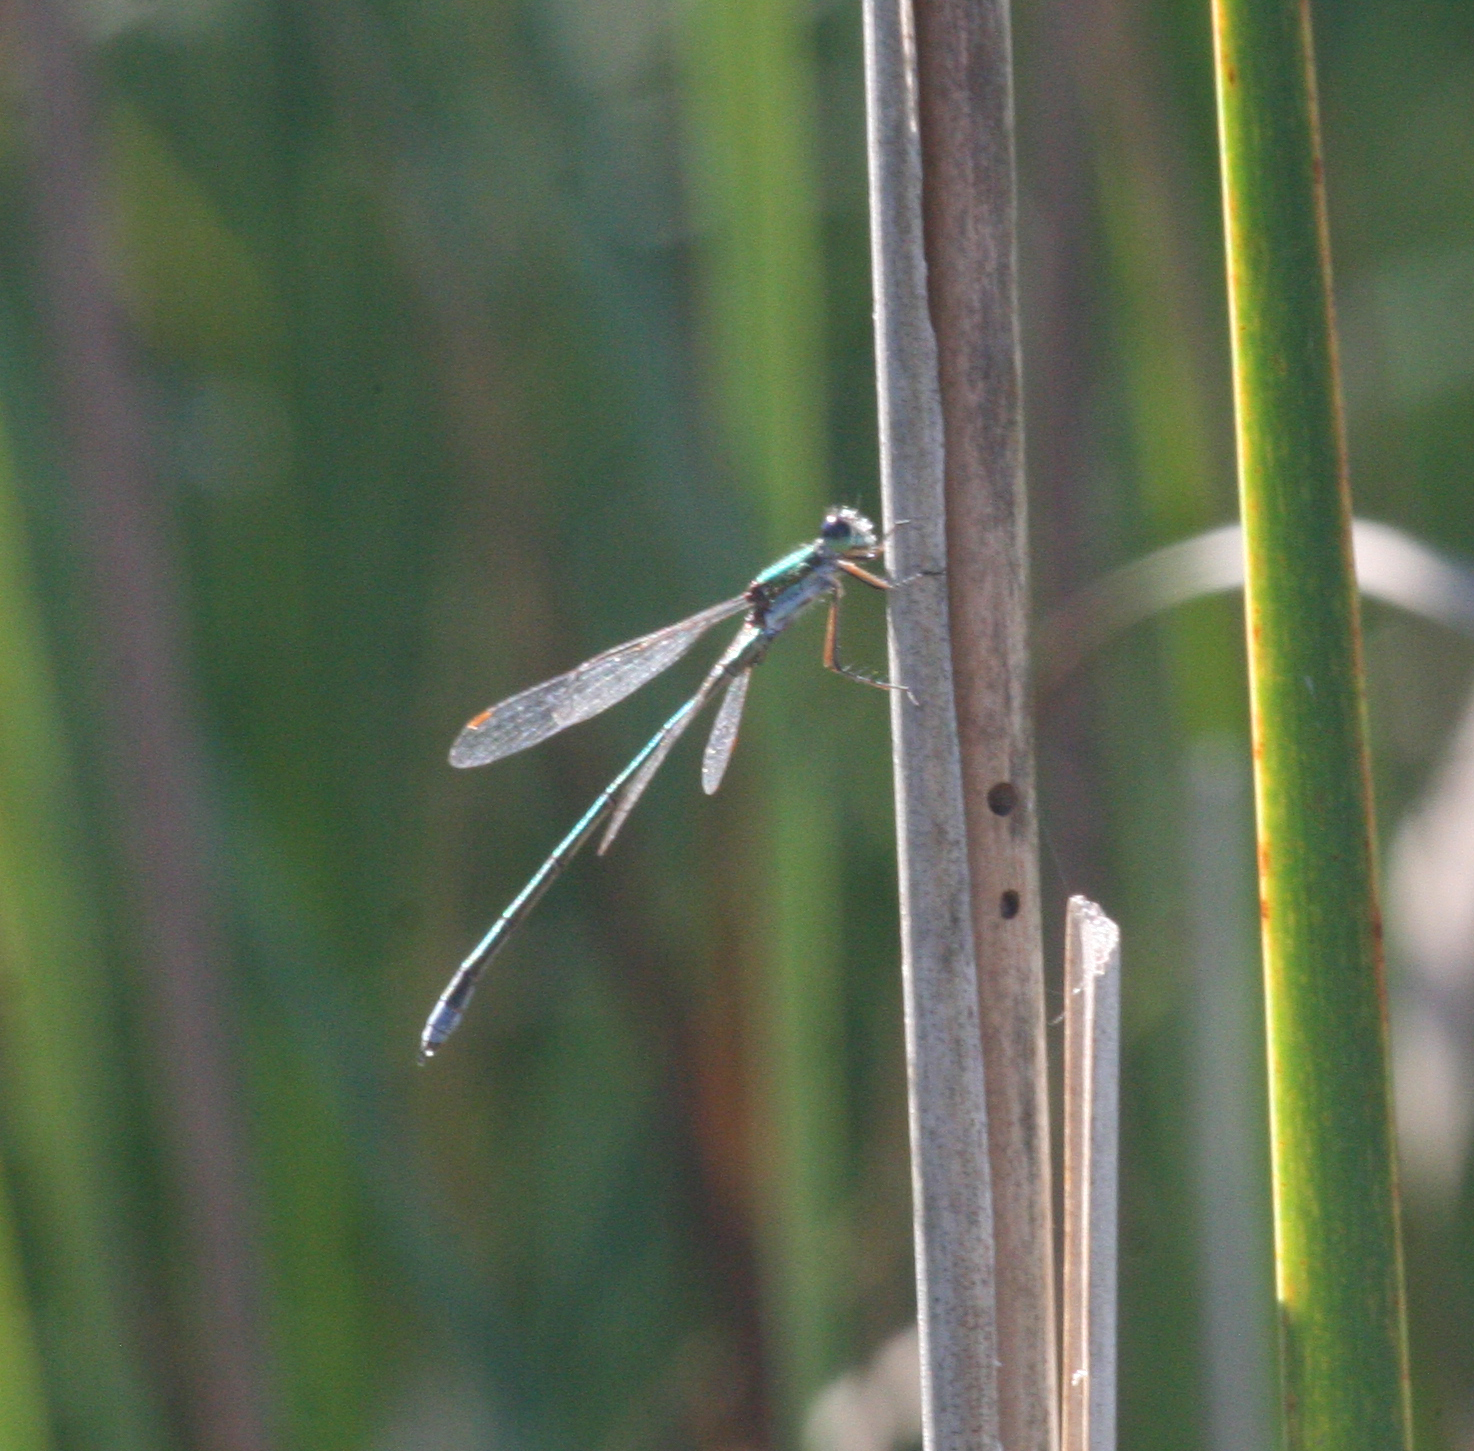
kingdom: Animalia
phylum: Arthropoda
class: Insecta
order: Odonata
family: Lestidae
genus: Lestes
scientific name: Lestes virens
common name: Small emerald spreadwing
